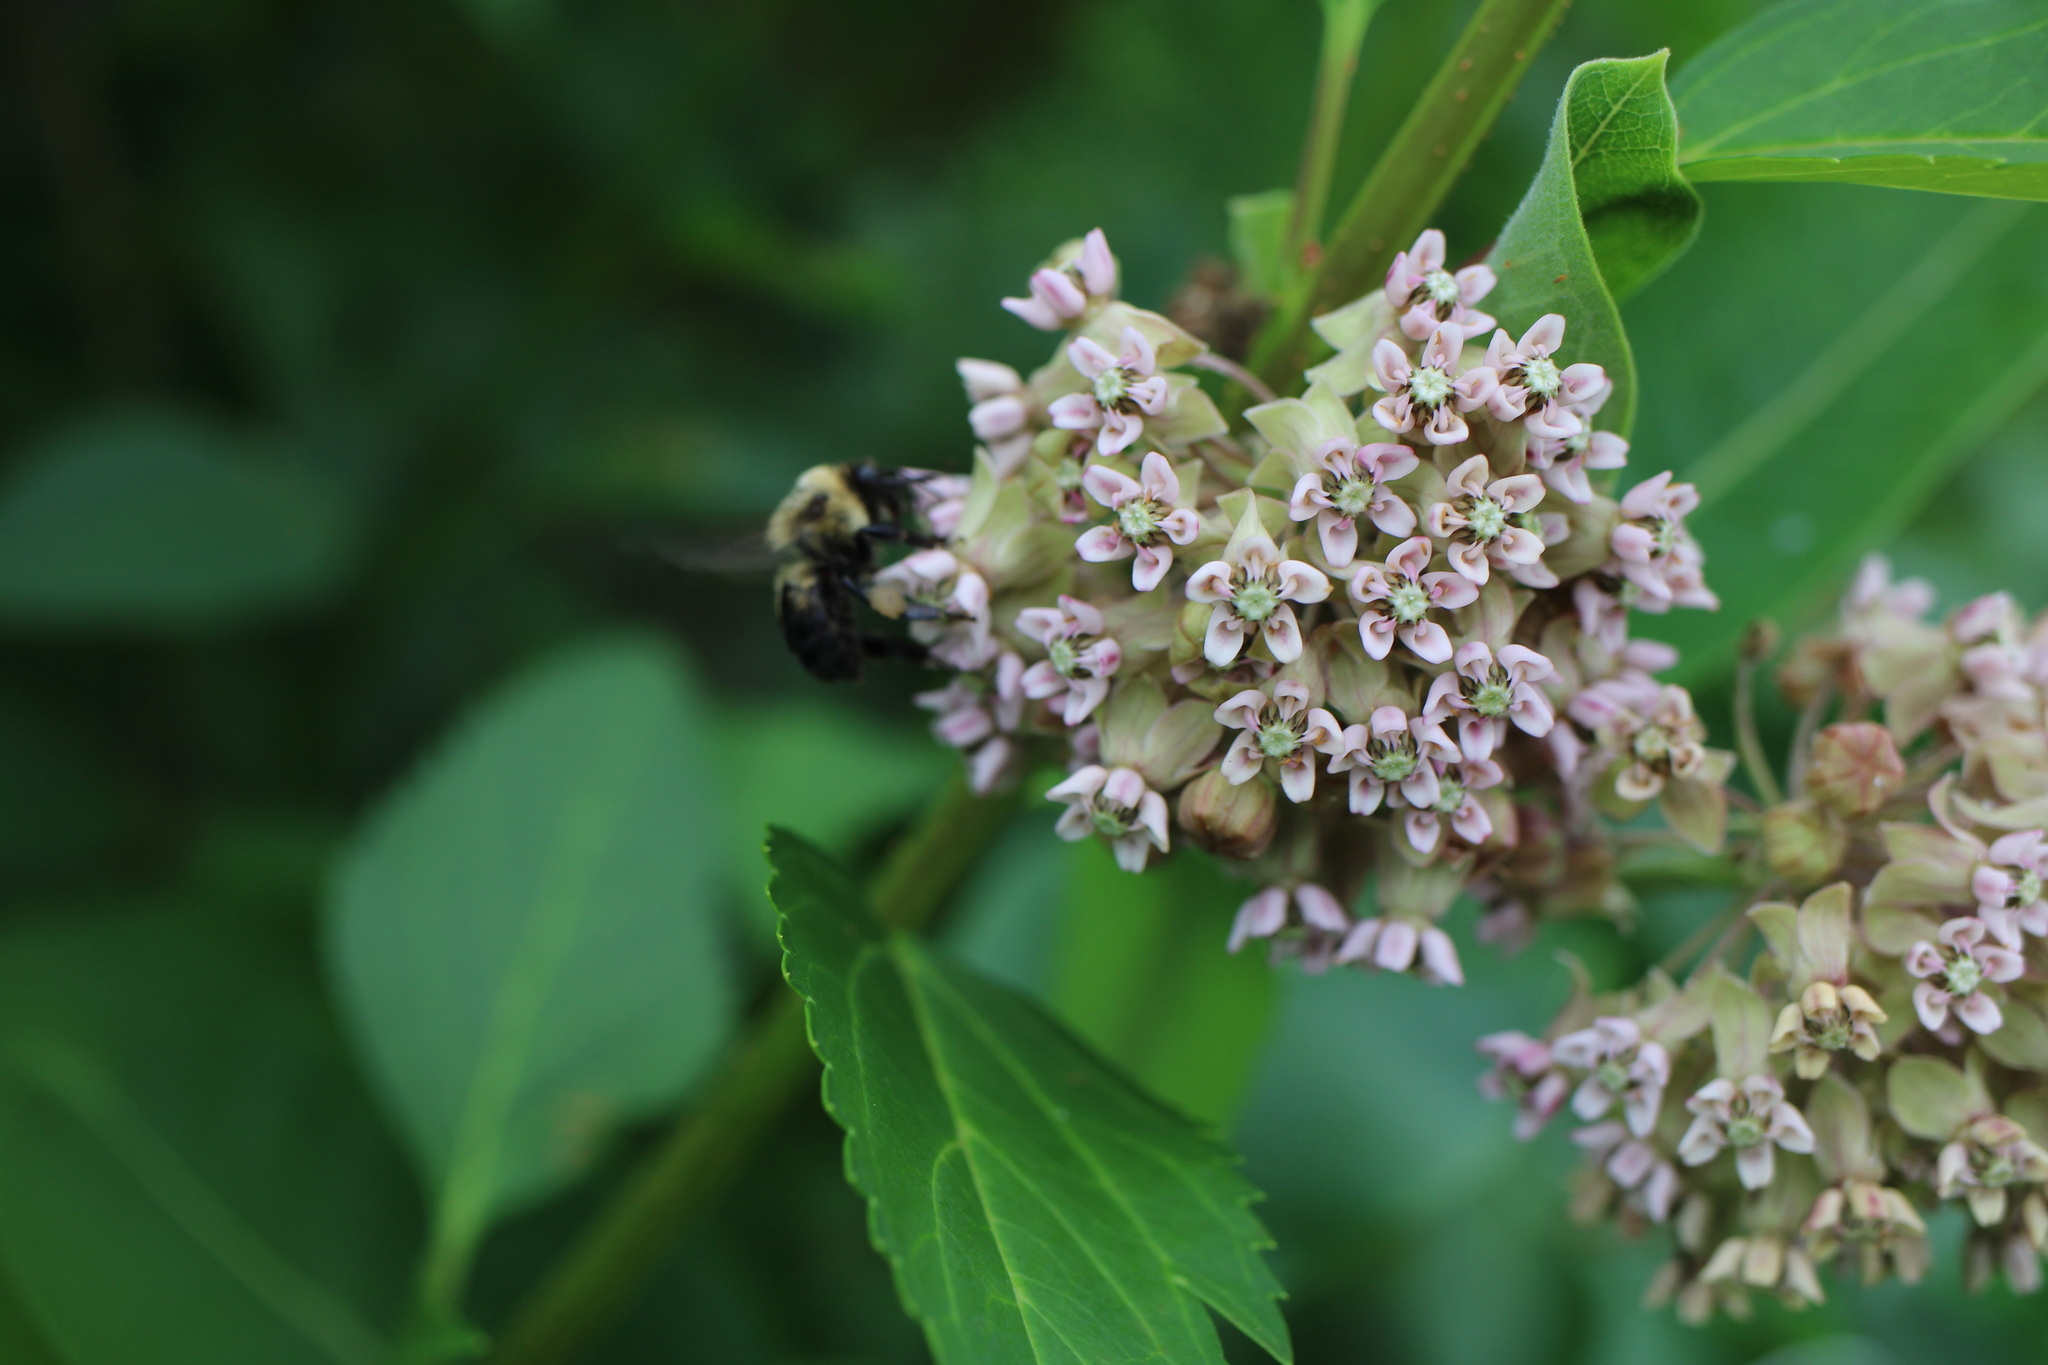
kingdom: Animalia
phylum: Arthropoda
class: Insecta
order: Hymenoptera
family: Apidae
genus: Bombus
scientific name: Bombus griseocollis
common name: Brown-belted bumble bee
